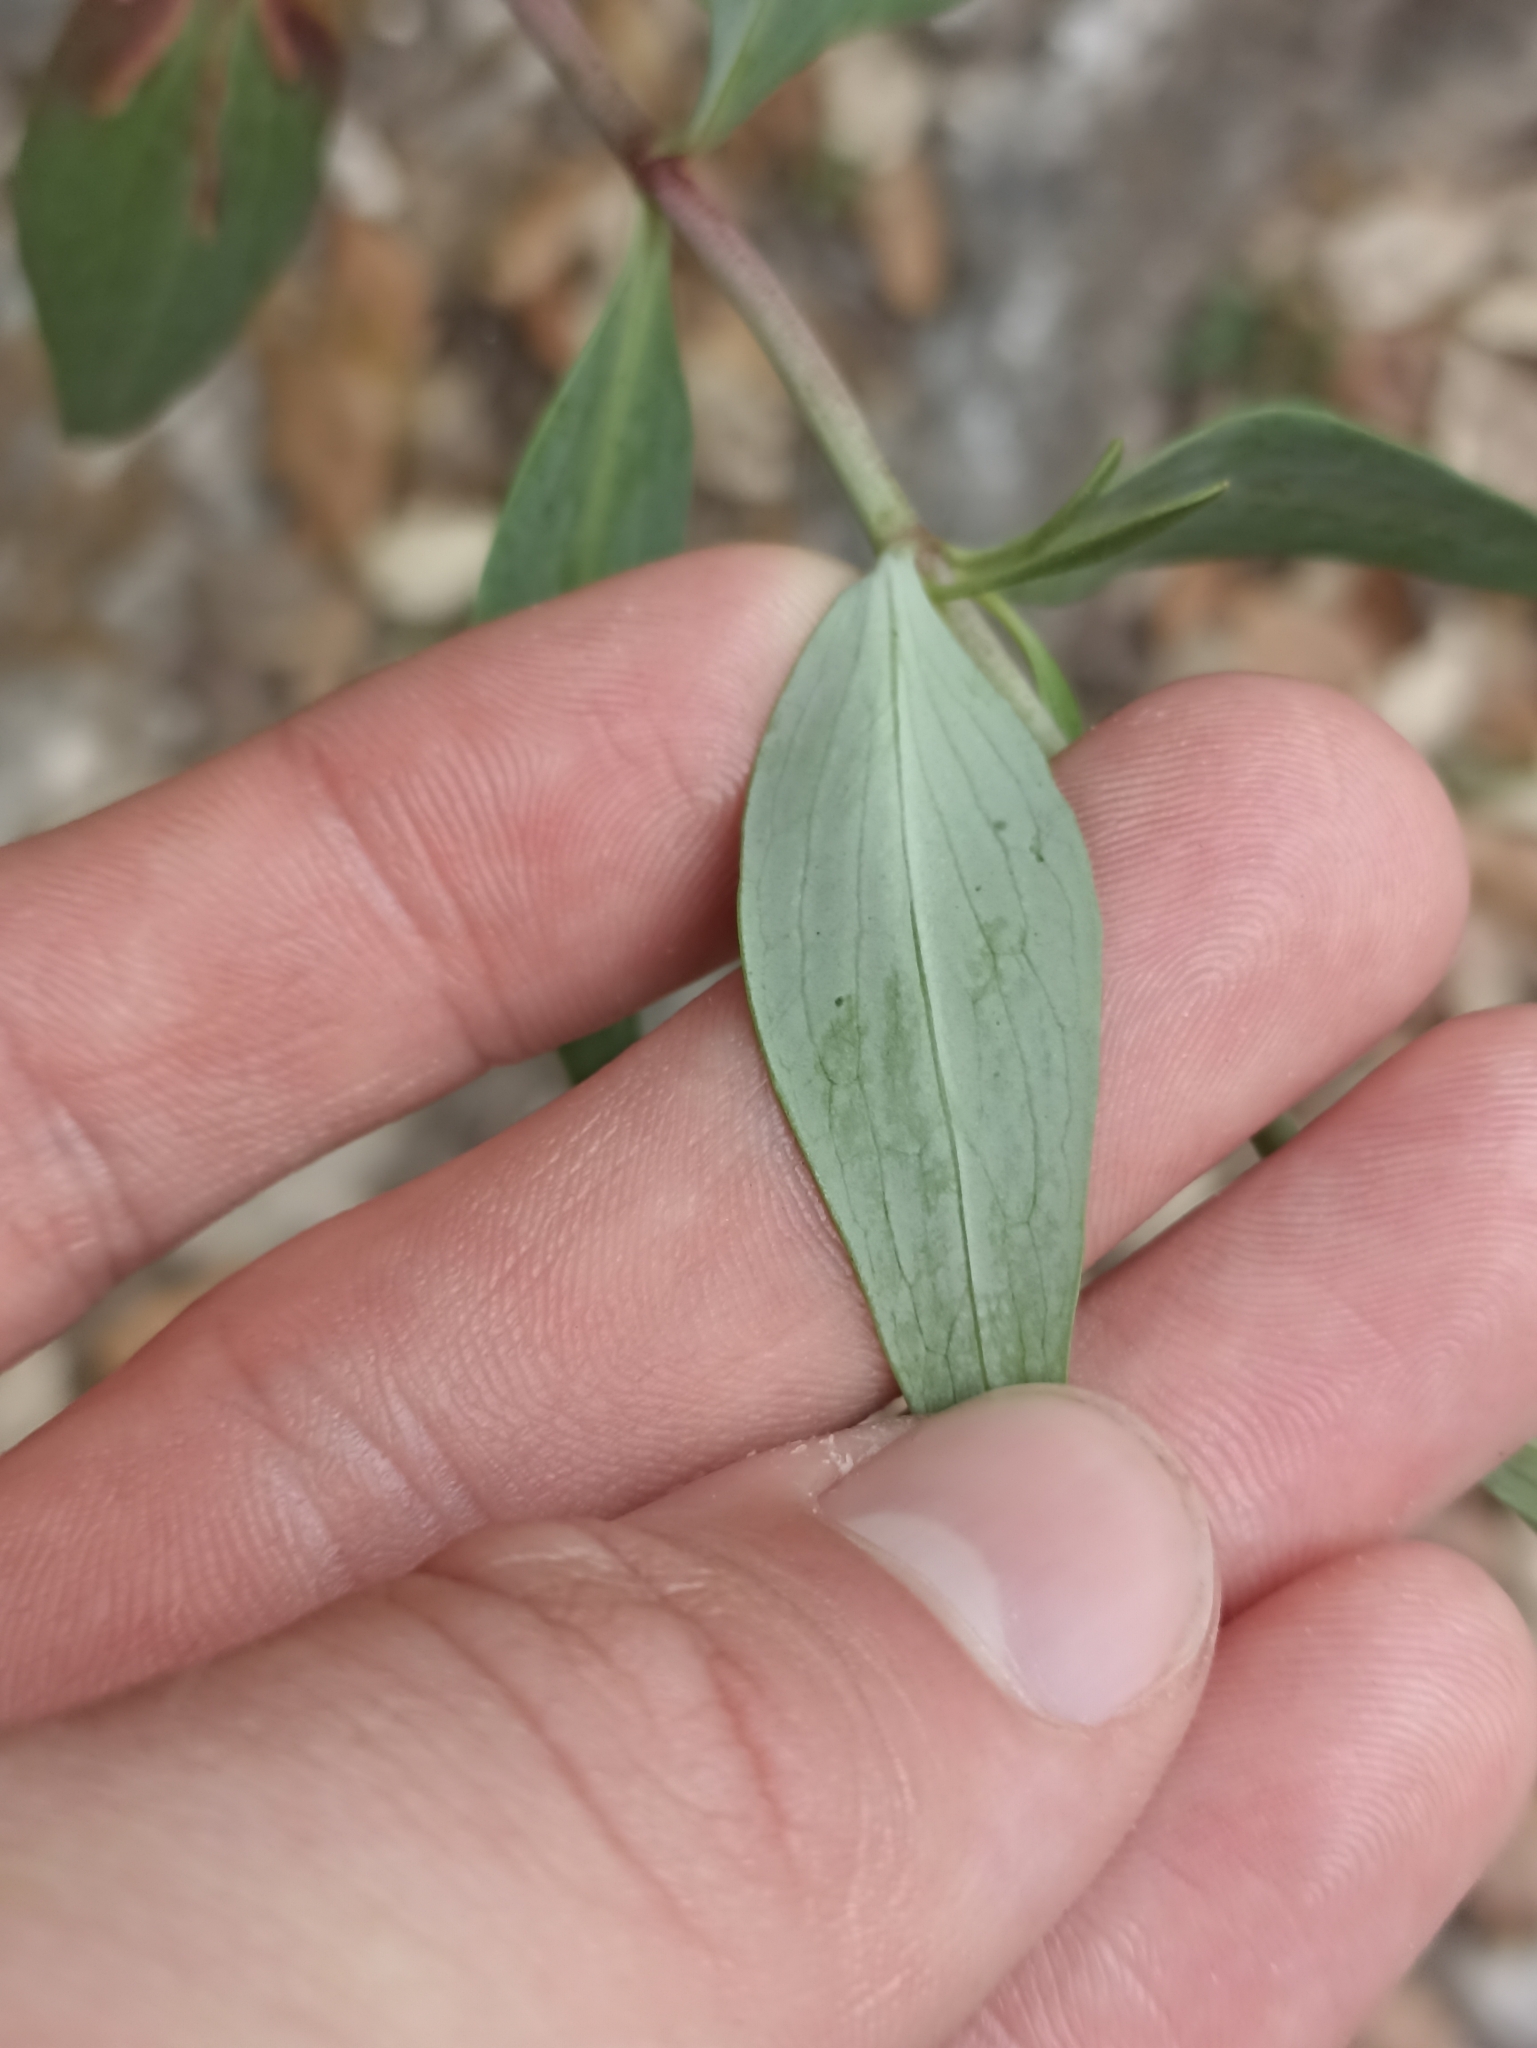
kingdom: Plantae
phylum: Tracheophyta
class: Magnoliopsida
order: Dipsacales
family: Caprifoliaceae
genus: Centranthus
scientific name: Centranthus ruber
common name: Red valerian
